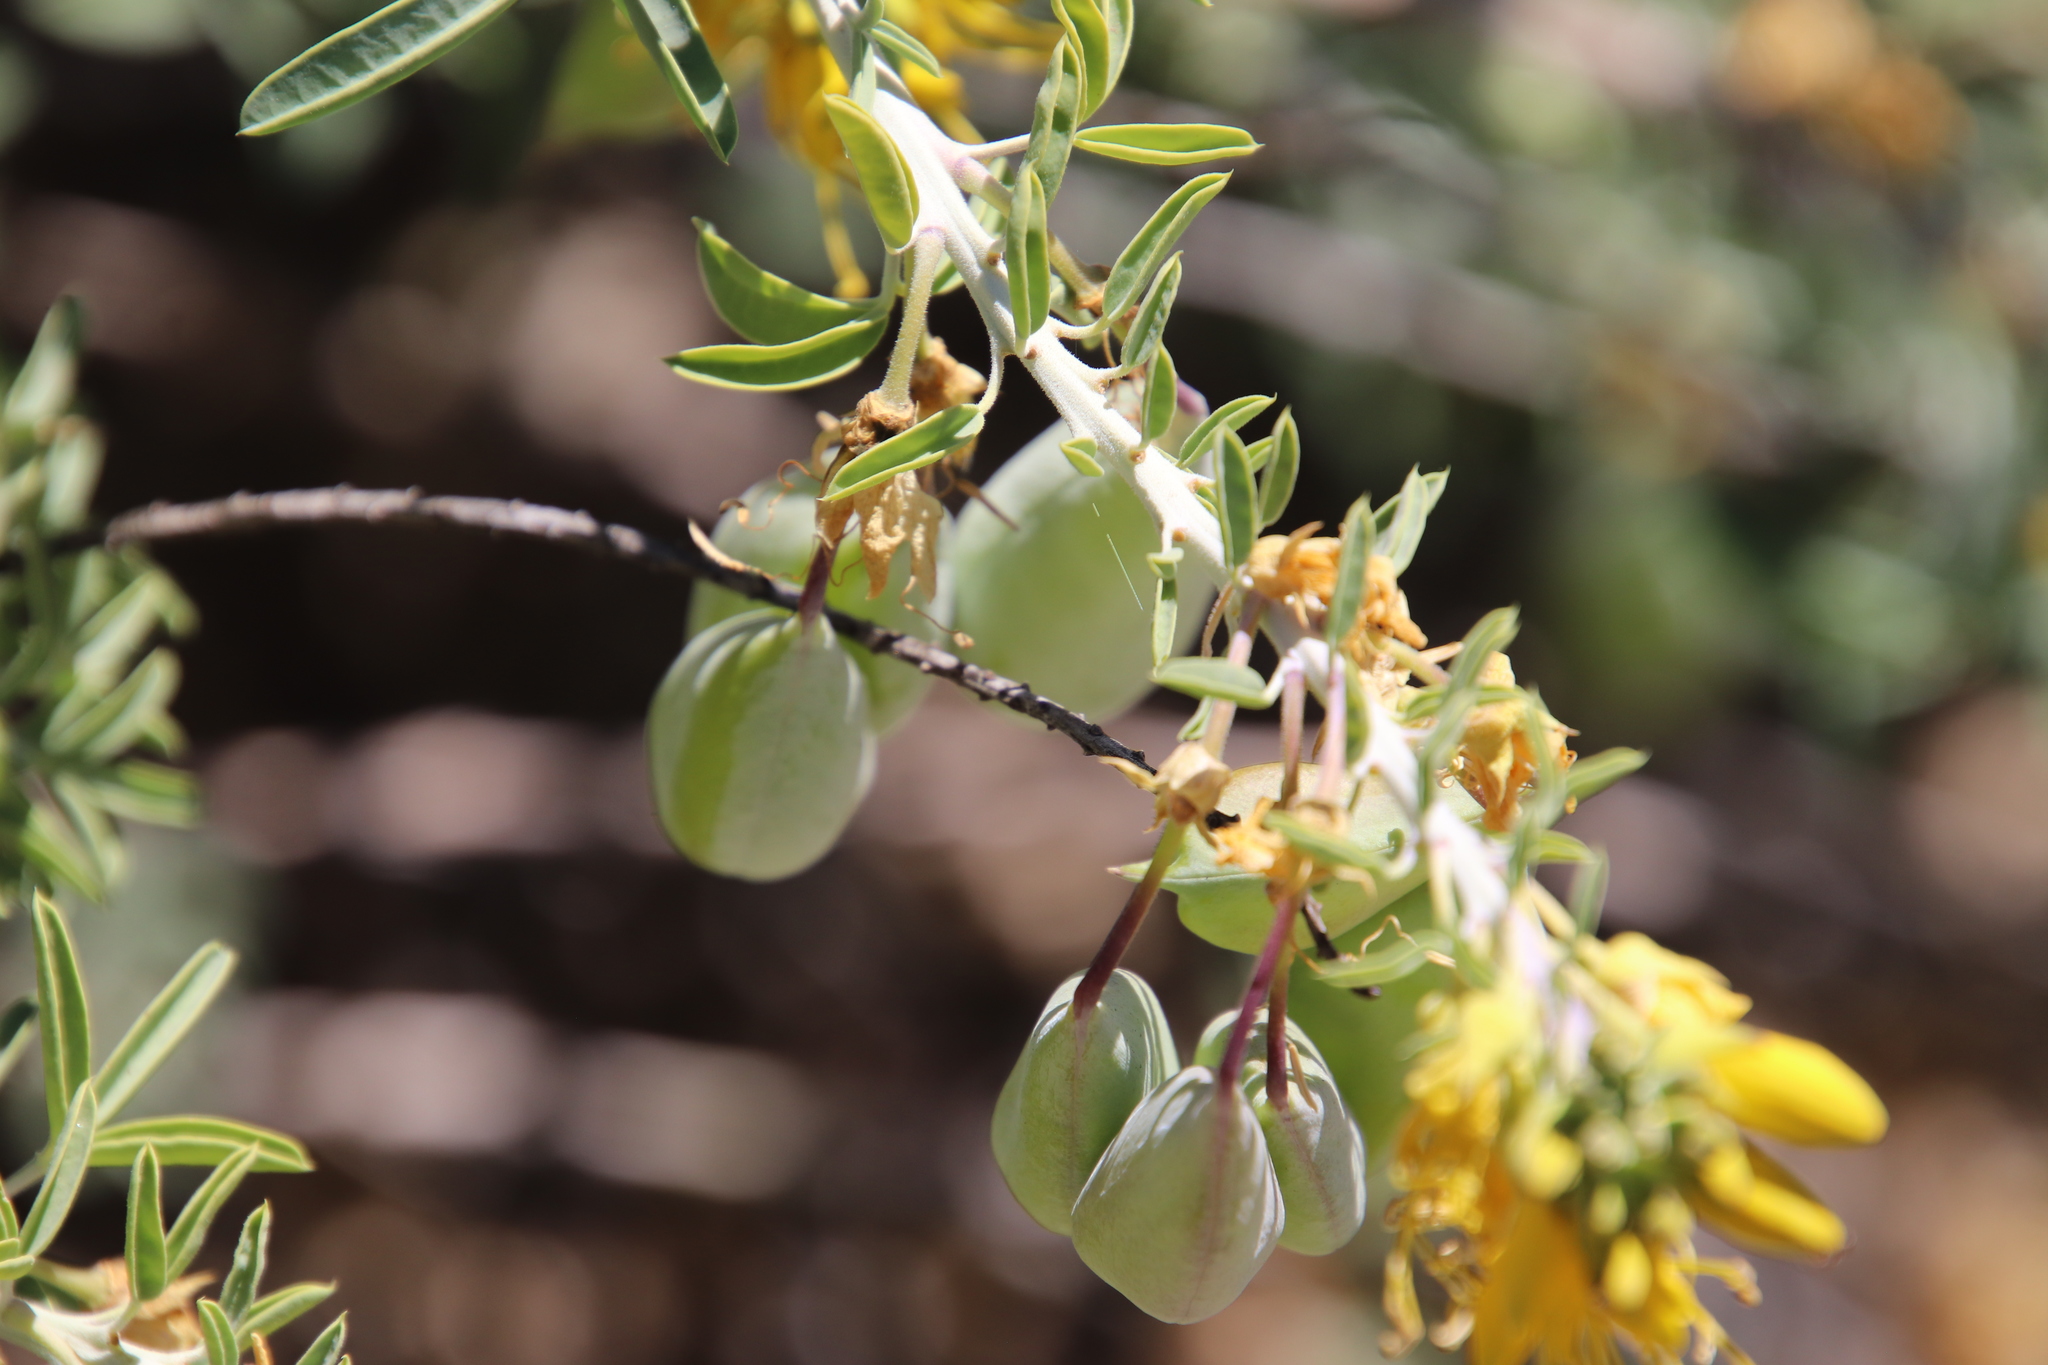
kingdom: Plantae
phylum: Tracheophyta
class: Magnoliopsida
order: Brassicales
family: Cleomaceae
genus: Cleomella
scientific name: Cleomella arborea
